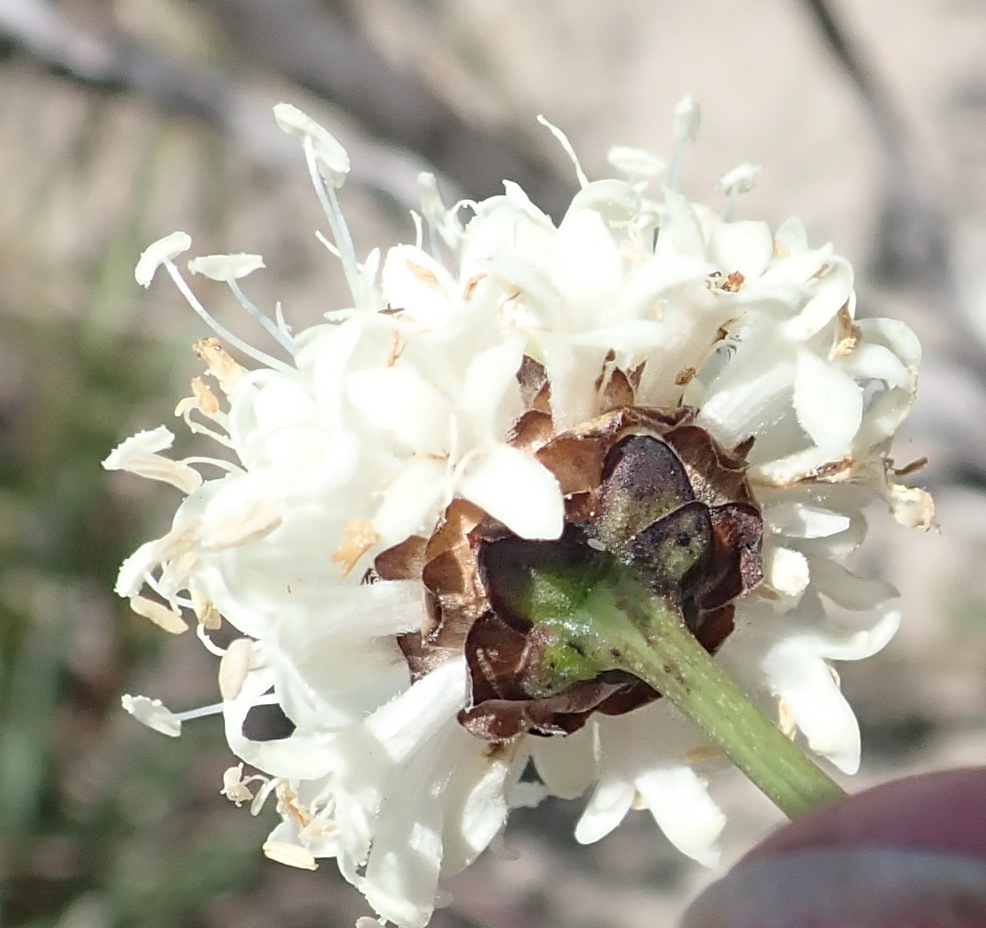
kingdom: Plantae
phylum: Tracheophyta
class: Magnoliopsida
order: Dipsacales
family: Caprifoliaceae
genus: Cephalaria
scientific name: Cephalaria humilis
